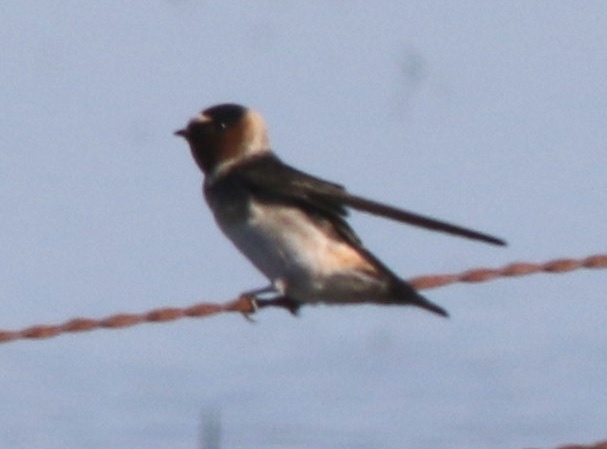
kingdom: Animalia
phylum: Chordata
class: Aves
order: Passeriformes
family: Hirundinidae
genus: Petrochelidon
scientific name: Petrochelidon pyrrhonota
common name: American cliff swallow
